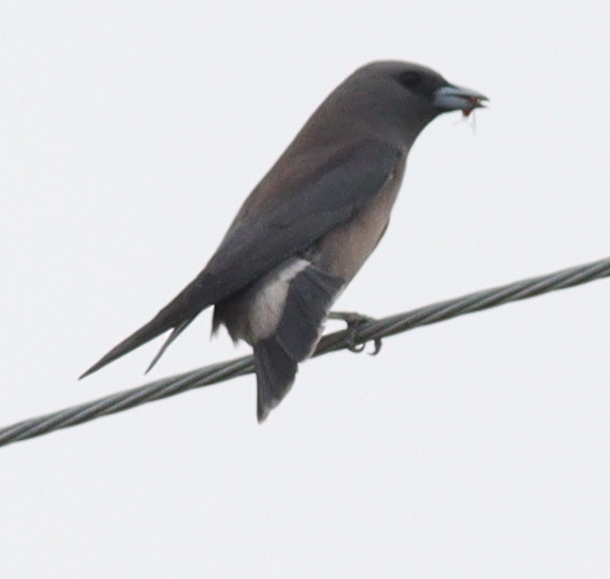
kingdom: Animalia
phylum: Chordata
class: Aves
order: Passeriformes
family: Artamidae
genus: Artamus
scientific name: Artamus fuscus
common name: Ashy woodswallow
